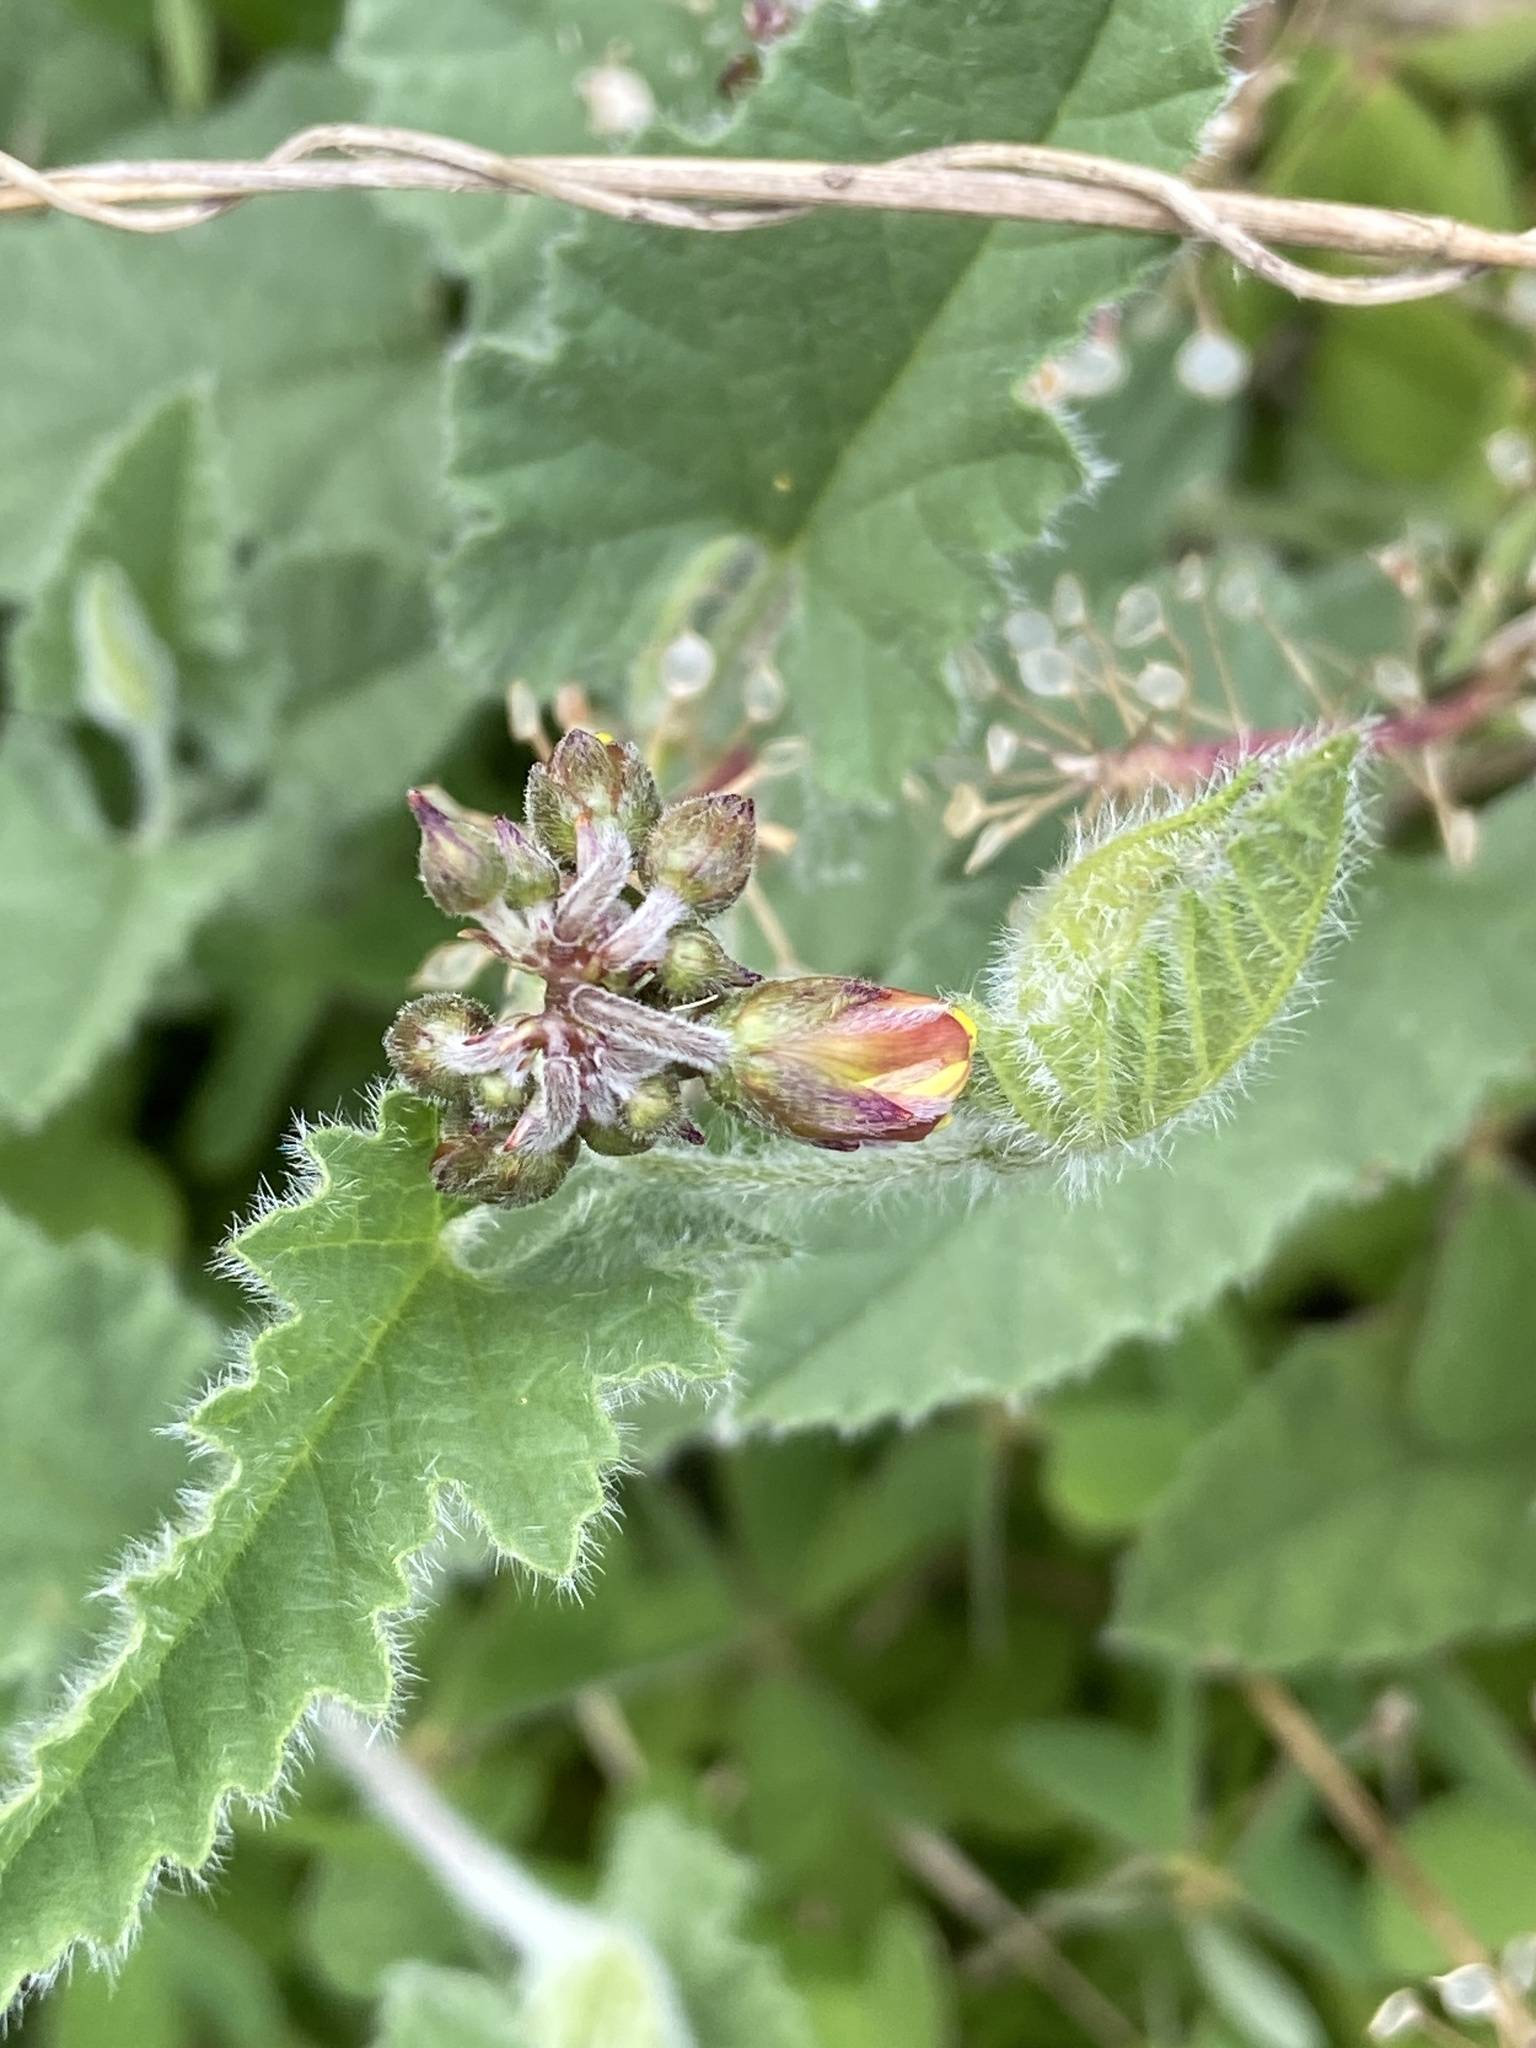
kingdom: Plantae
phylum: Tracheophyta
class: Magnoliopsida
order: Solanales
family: Convolvulaceae
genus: Convolvulus
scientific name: Convolvulus althaeoides
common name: Mallow bindweed
